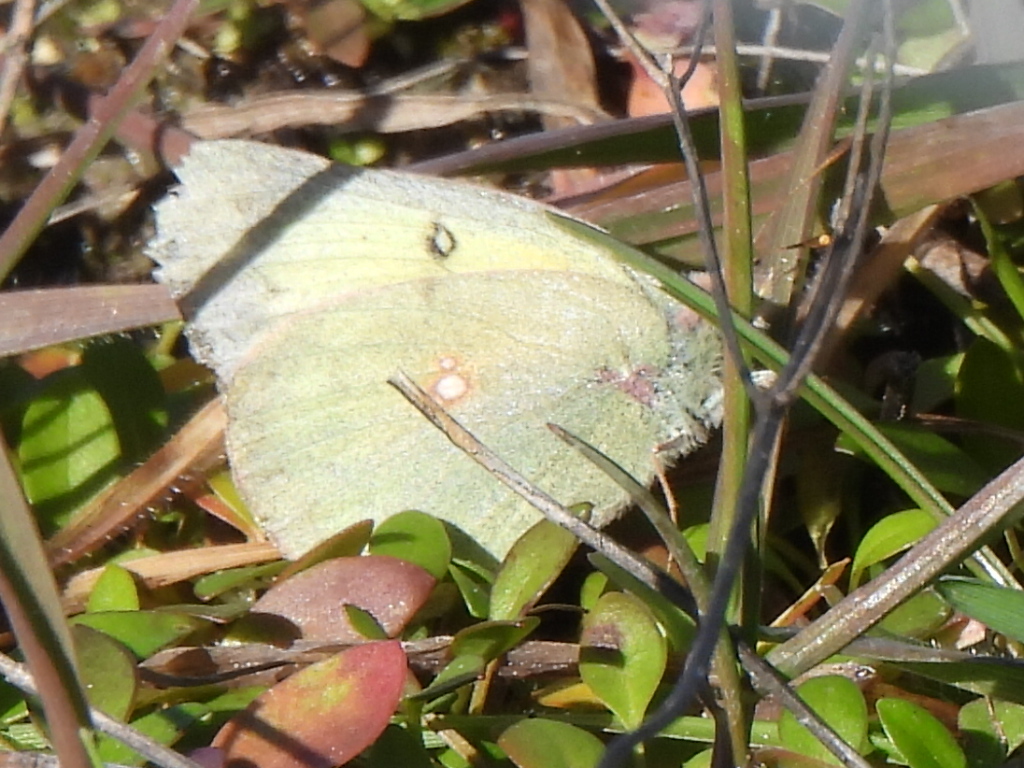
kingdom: Animalia
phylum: Arthropoda
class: Insecta
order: Lepidoptera
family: Pieridae
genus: Colias
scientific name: Colias eurytheme
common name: Alfalfa butterfly
